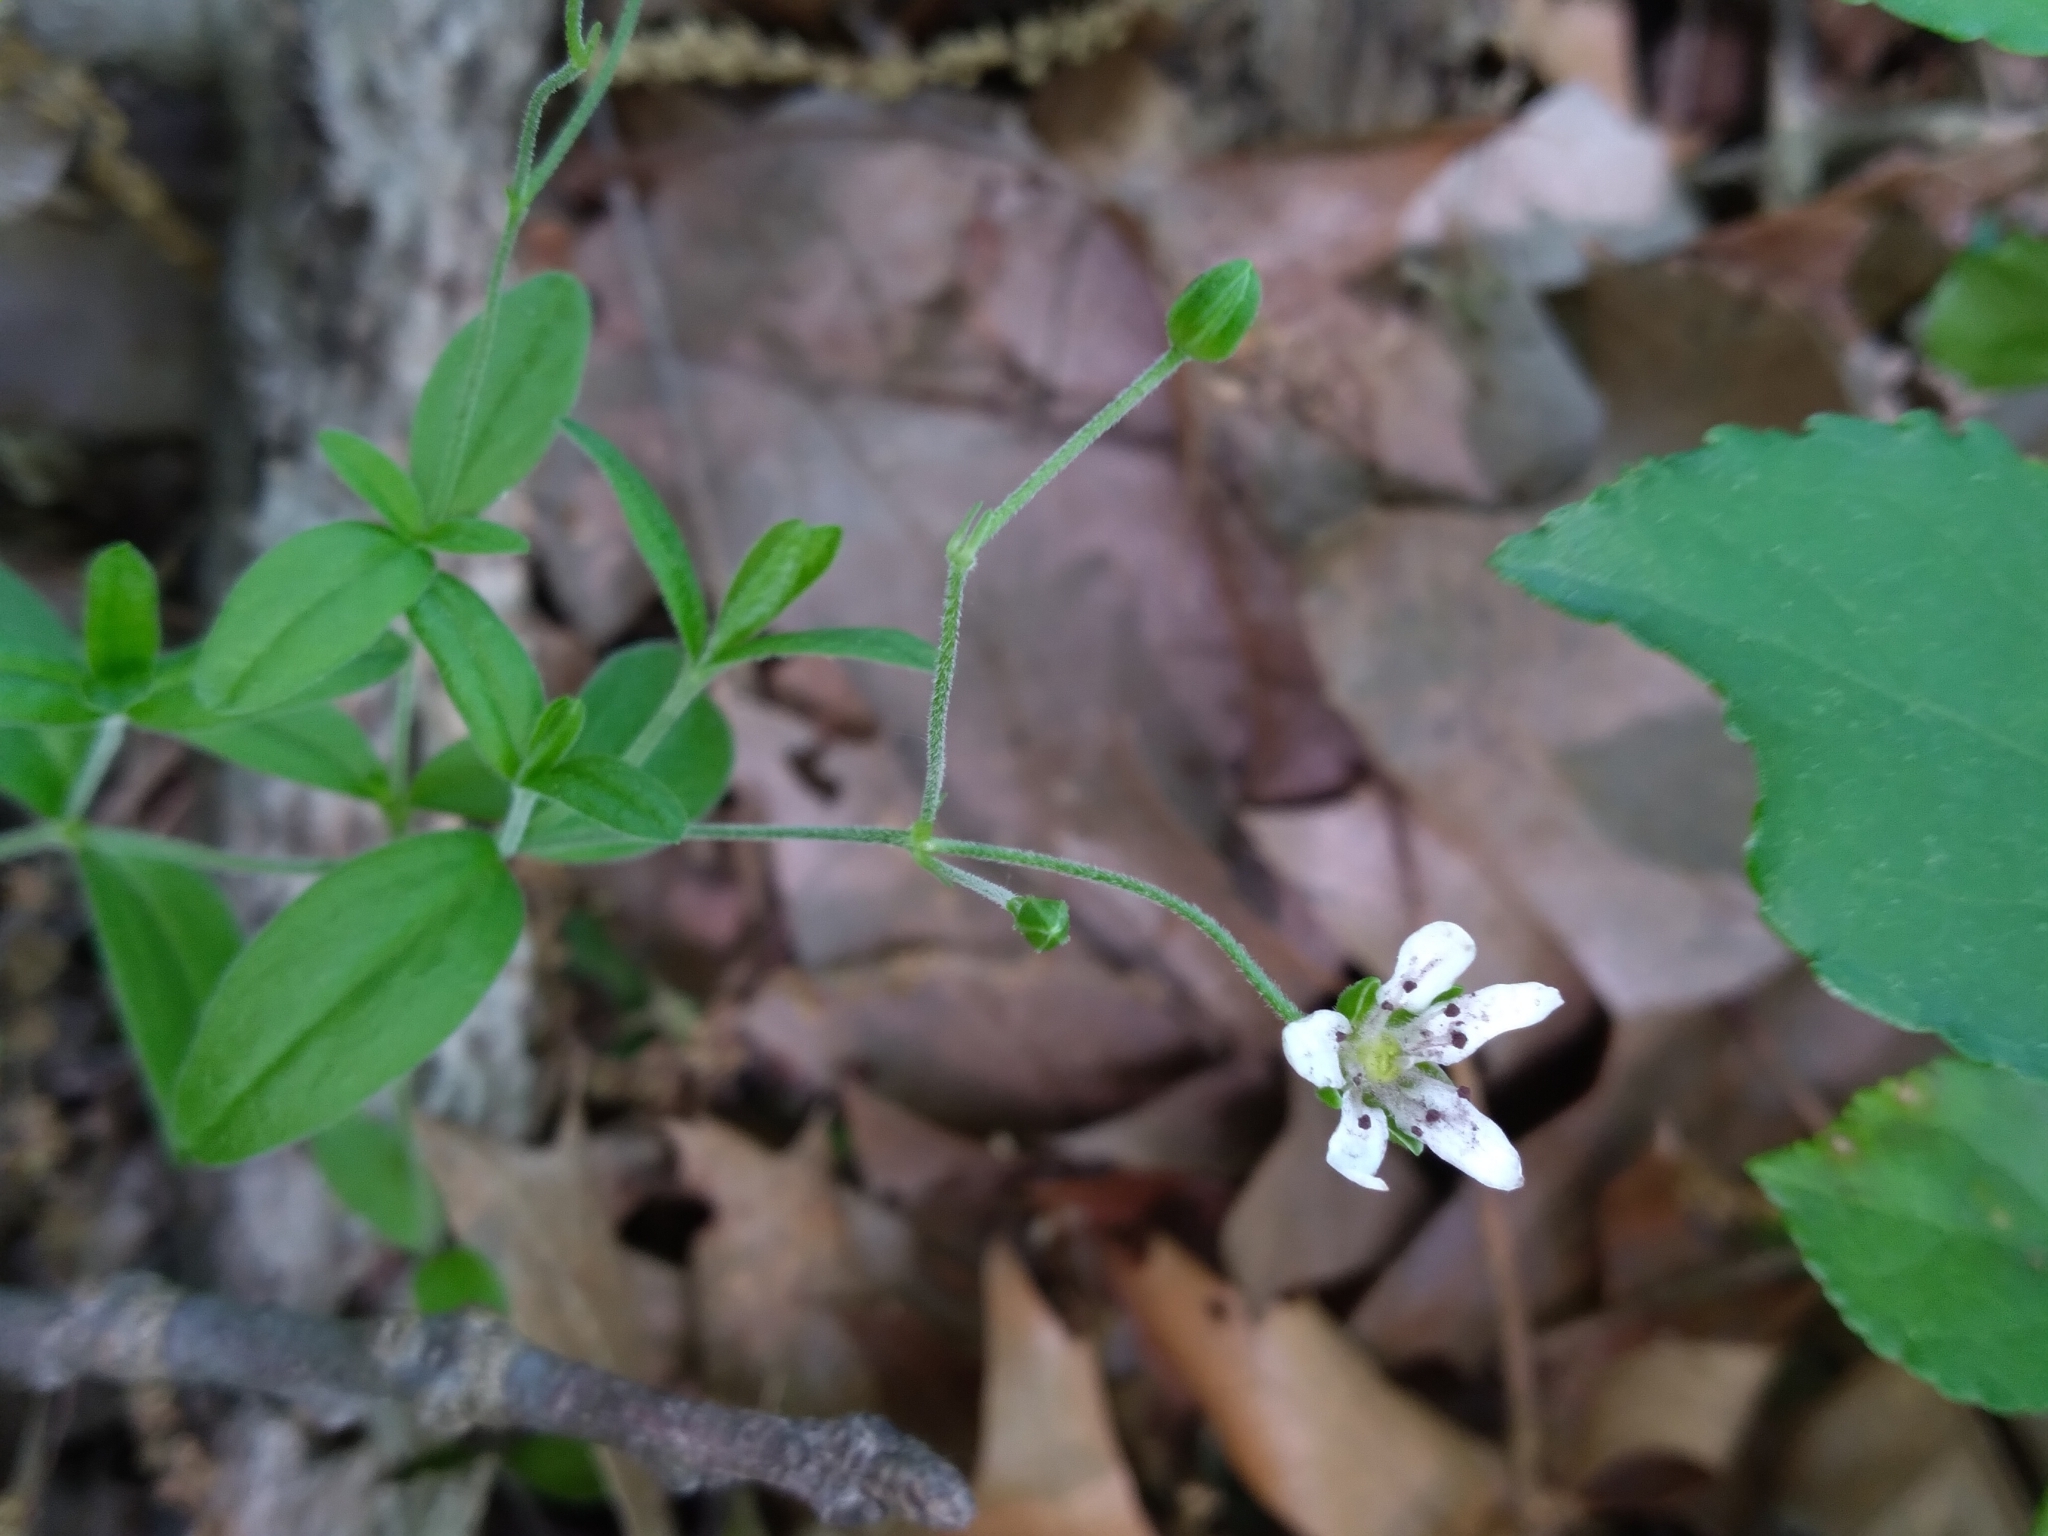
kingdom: Plantae
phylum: Tracheophyta
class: Magnoliopsida
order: Caryophyllales
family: Caryophyllaceae
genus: Moehringia
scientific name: Moehringia lateriflora
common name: Blunt-leaved sandwort
